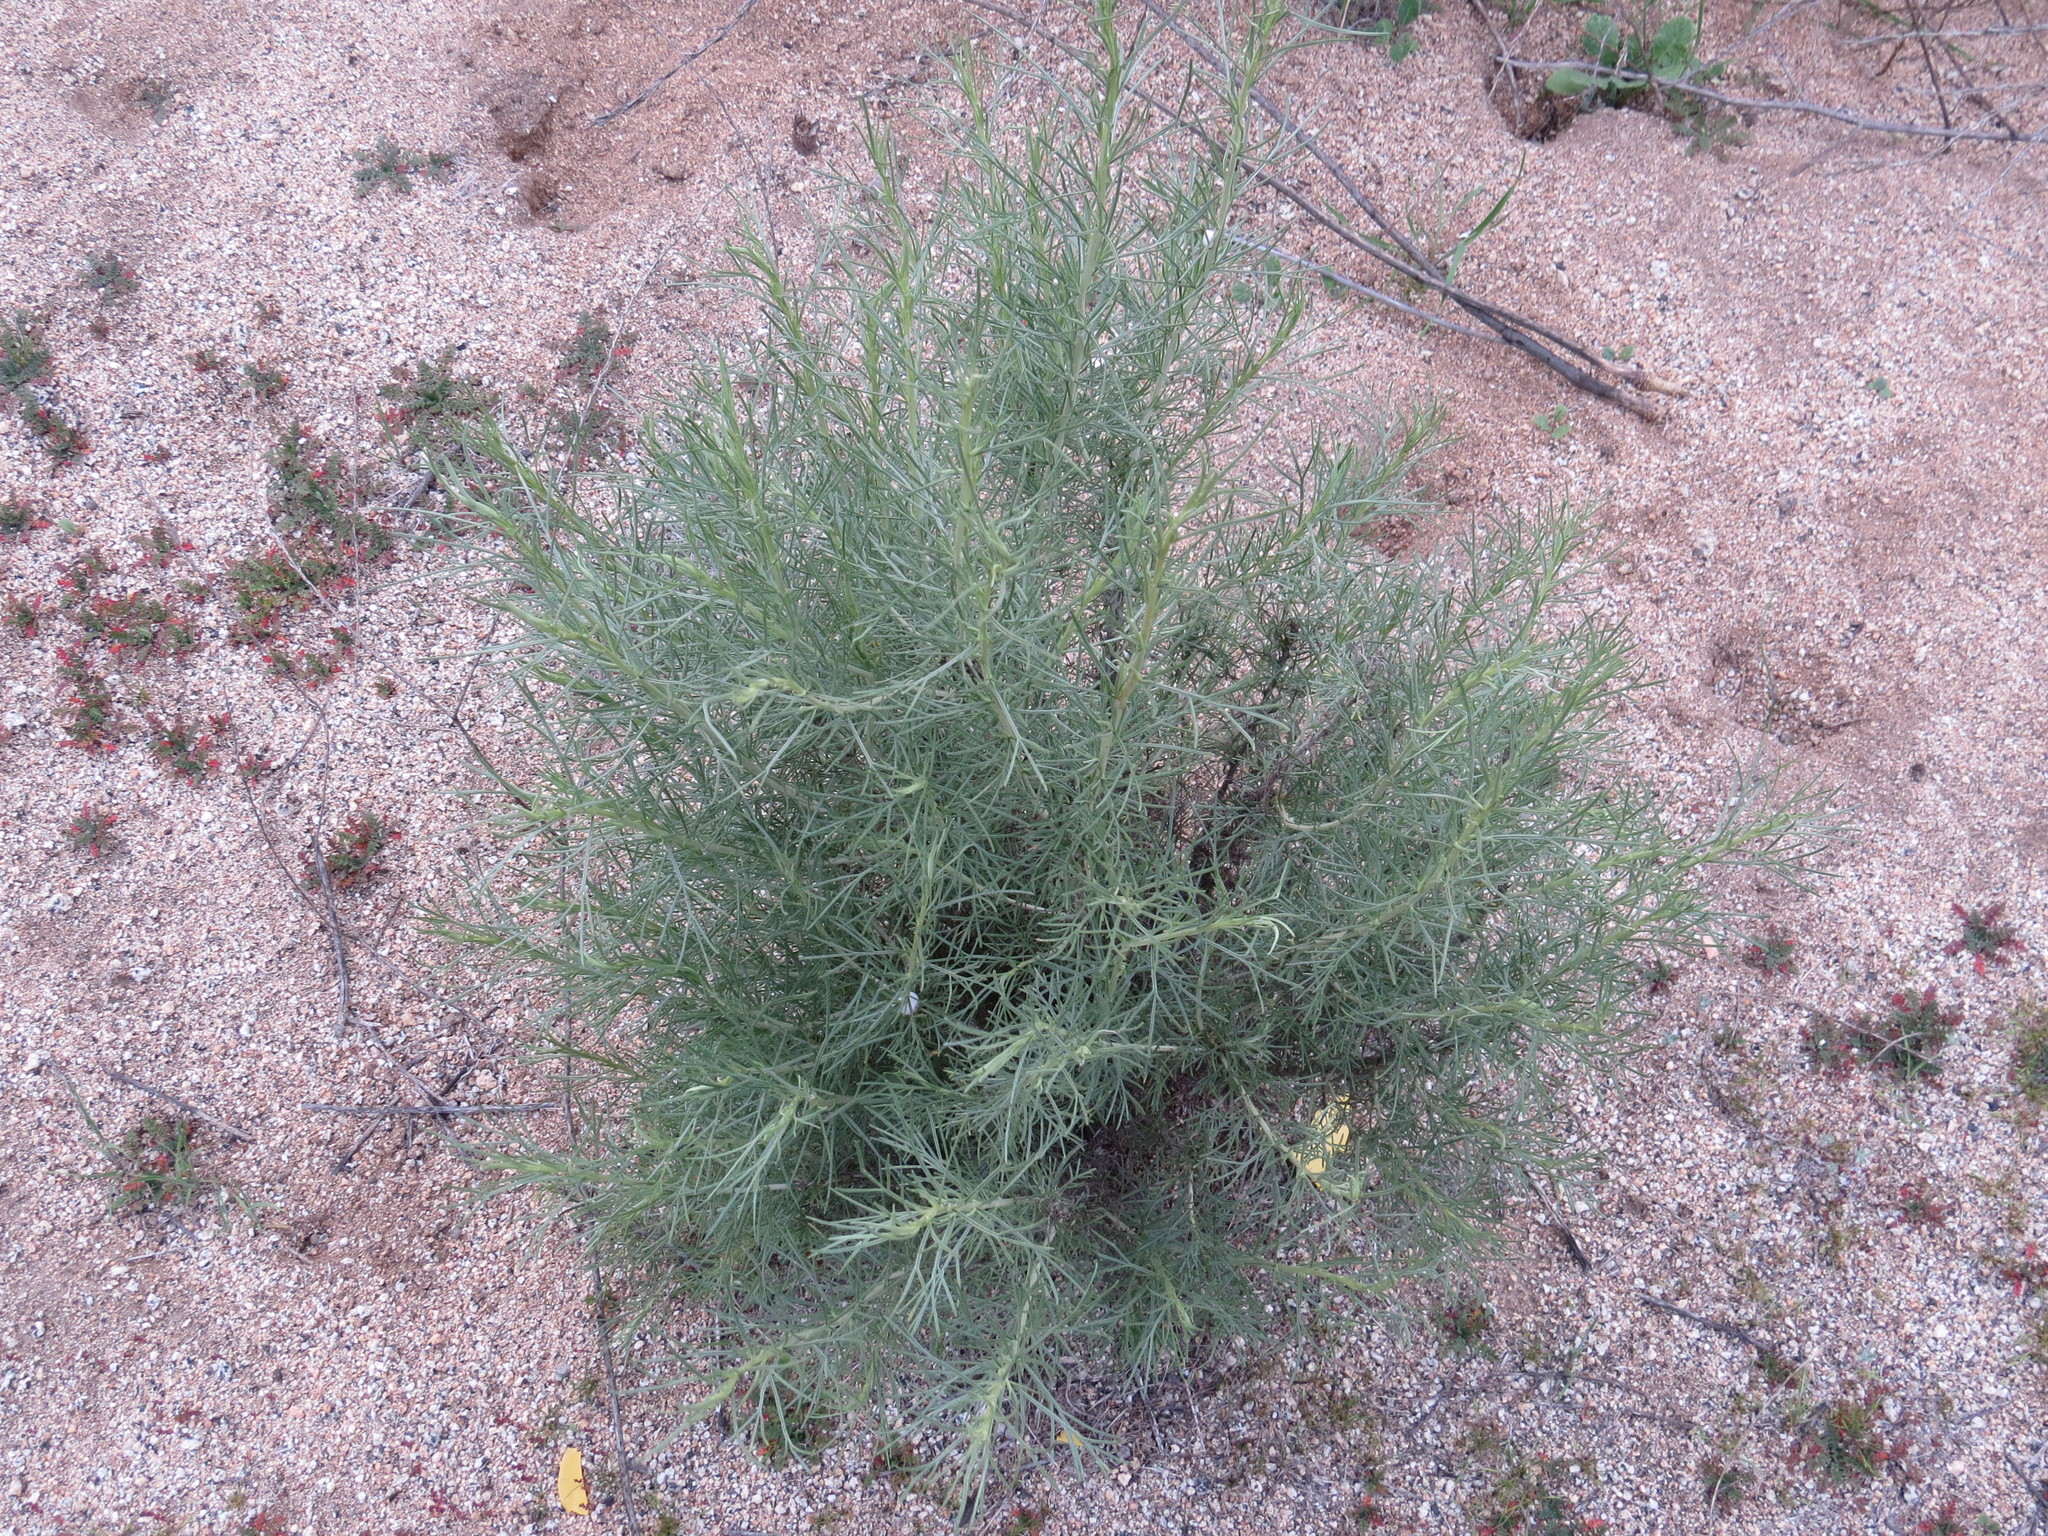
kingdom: Plantae
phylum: Tracheophyta
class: Magnoliopsida
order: Asterales
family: Asteraceae
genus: Artemisia
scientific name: Artemisia californica
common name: California sagebrush
